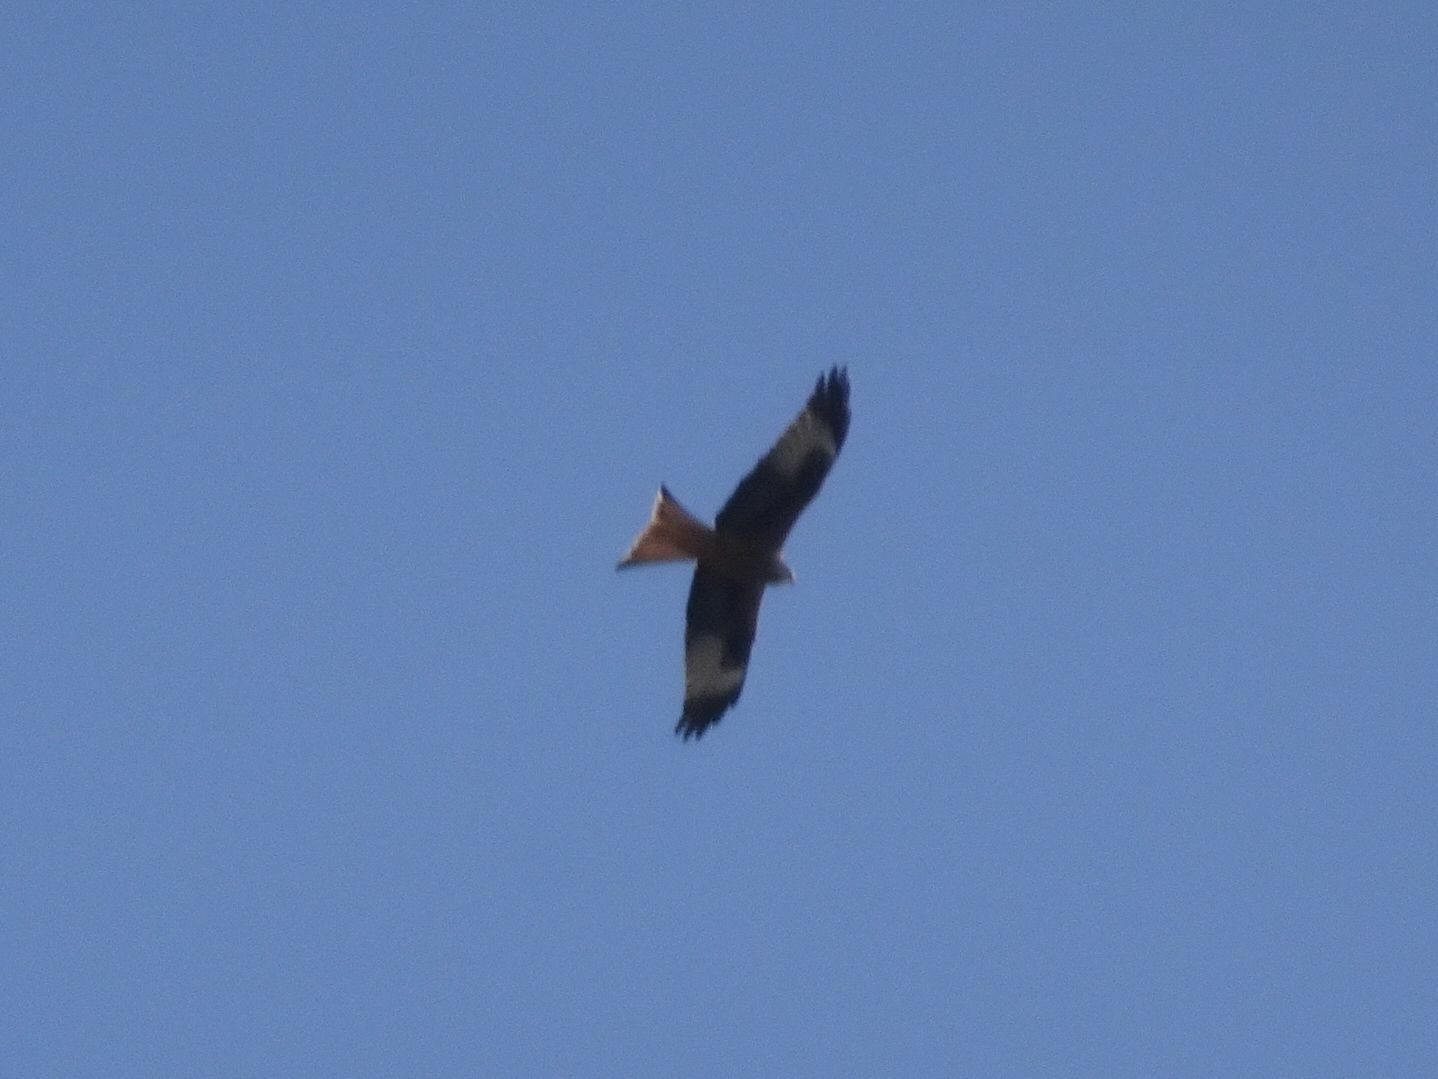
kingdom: Animalia
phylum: Chordata
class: Aves
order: Accipitriformes
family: Accipitridae
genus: Milvus
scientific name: Milvus milvus
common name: Red kite
